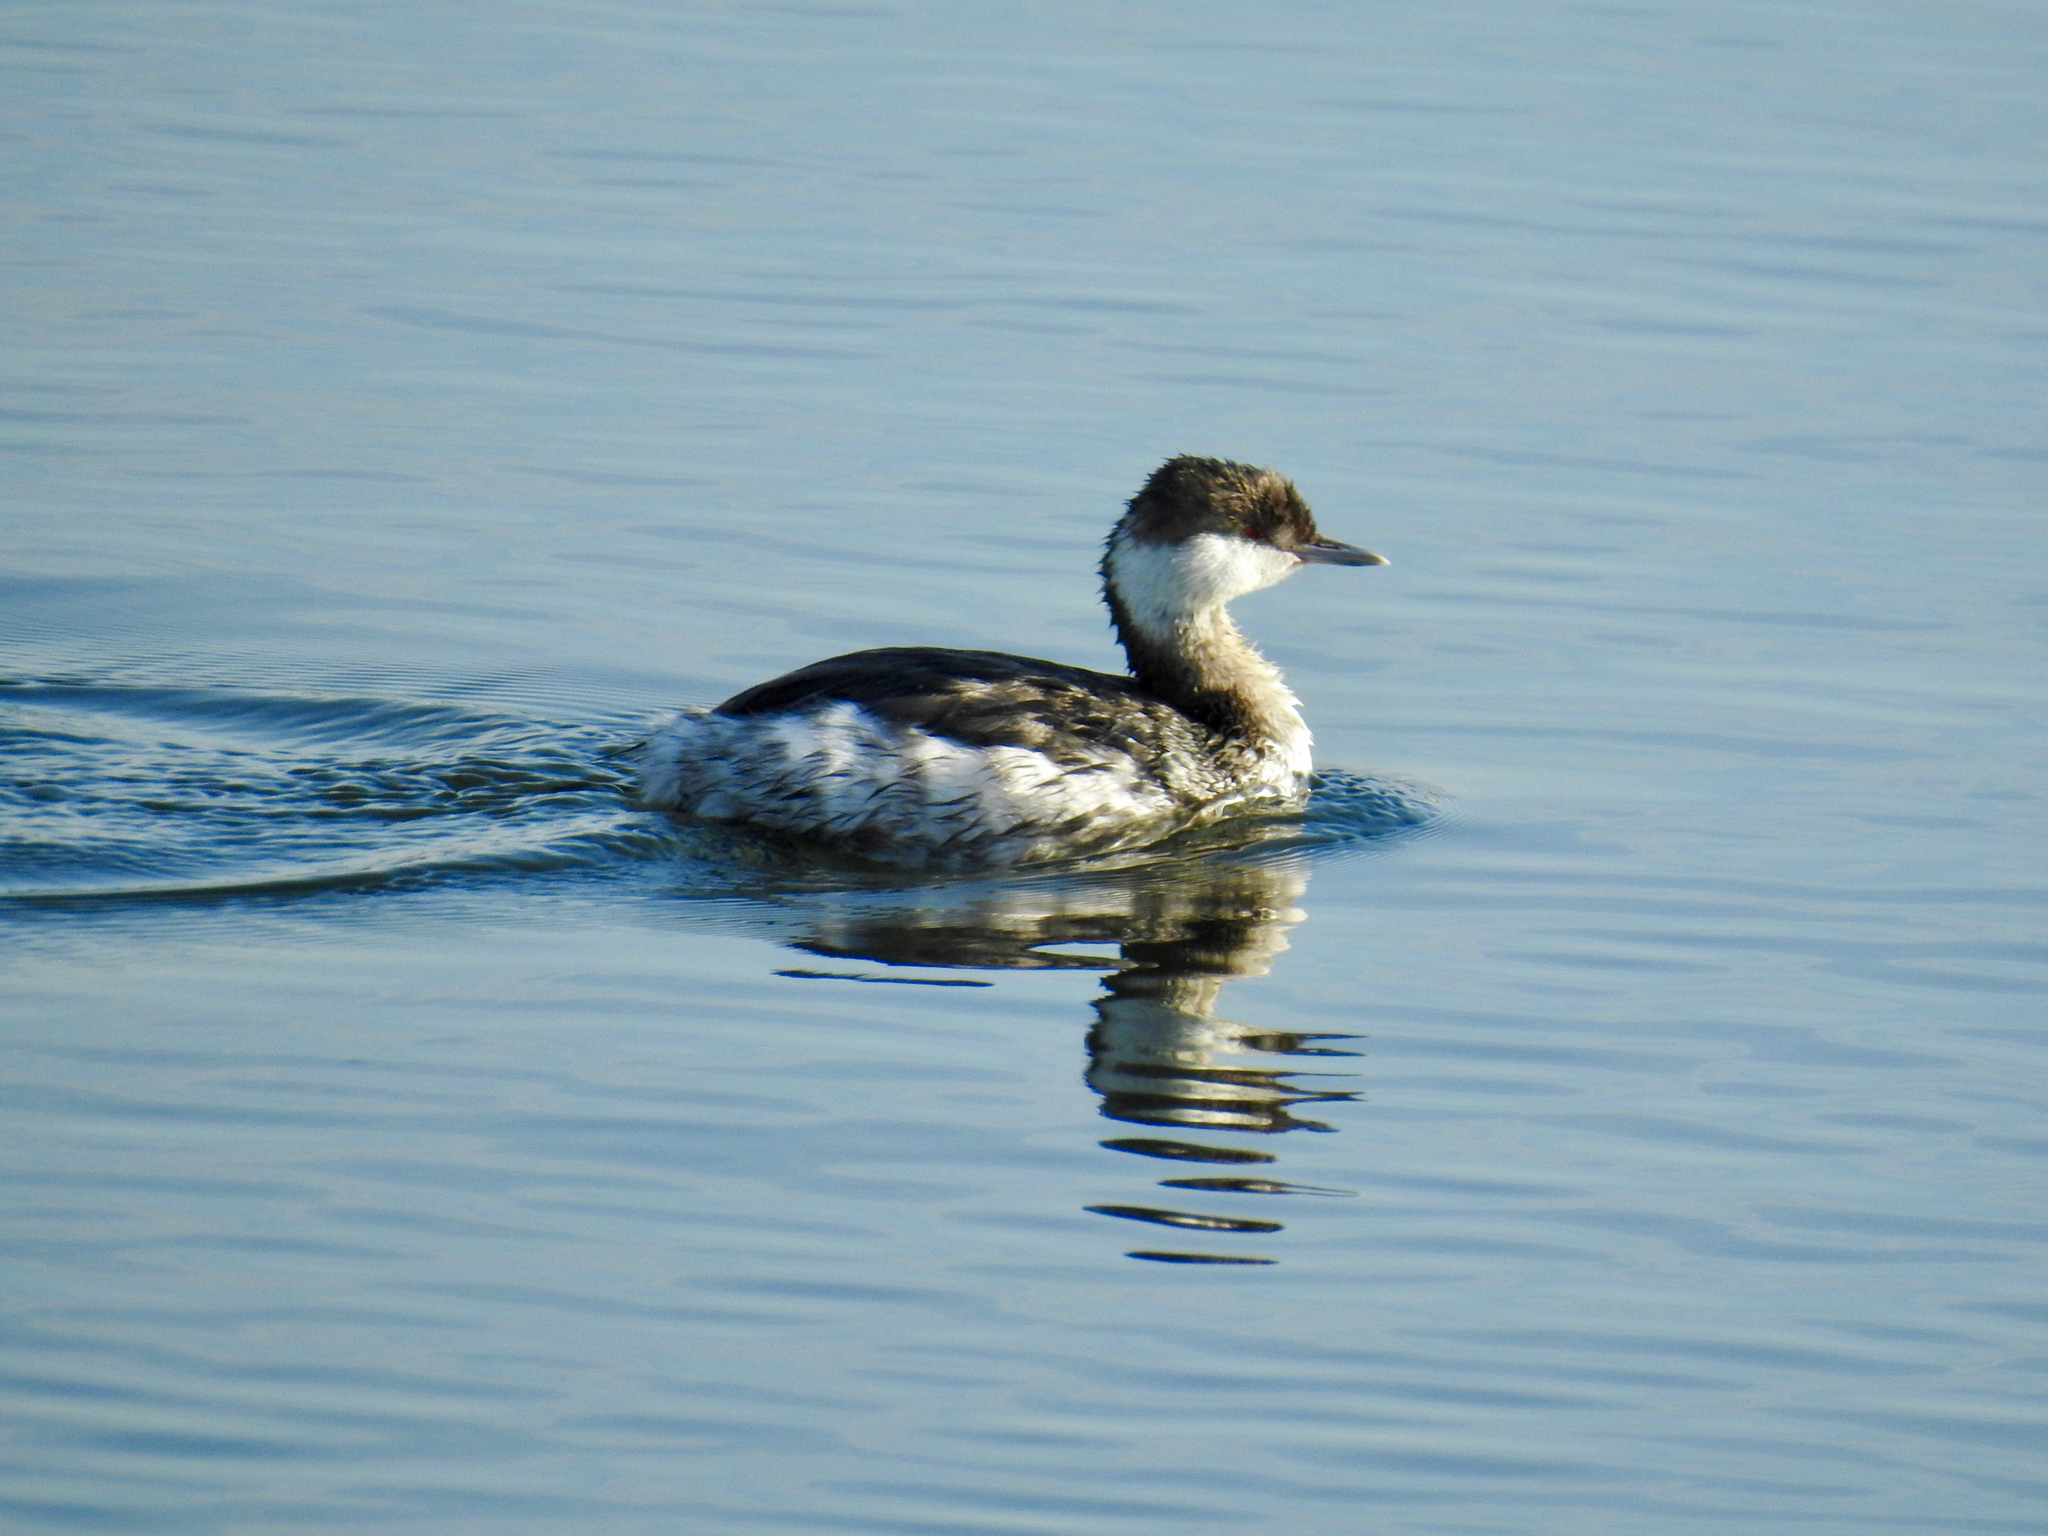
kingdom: Animalia
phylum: Chordata
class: Aves
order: Podicipediformes
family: Podicipedidae
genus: Podiceps
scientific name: Podiceps auritus
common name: Horned grebe
